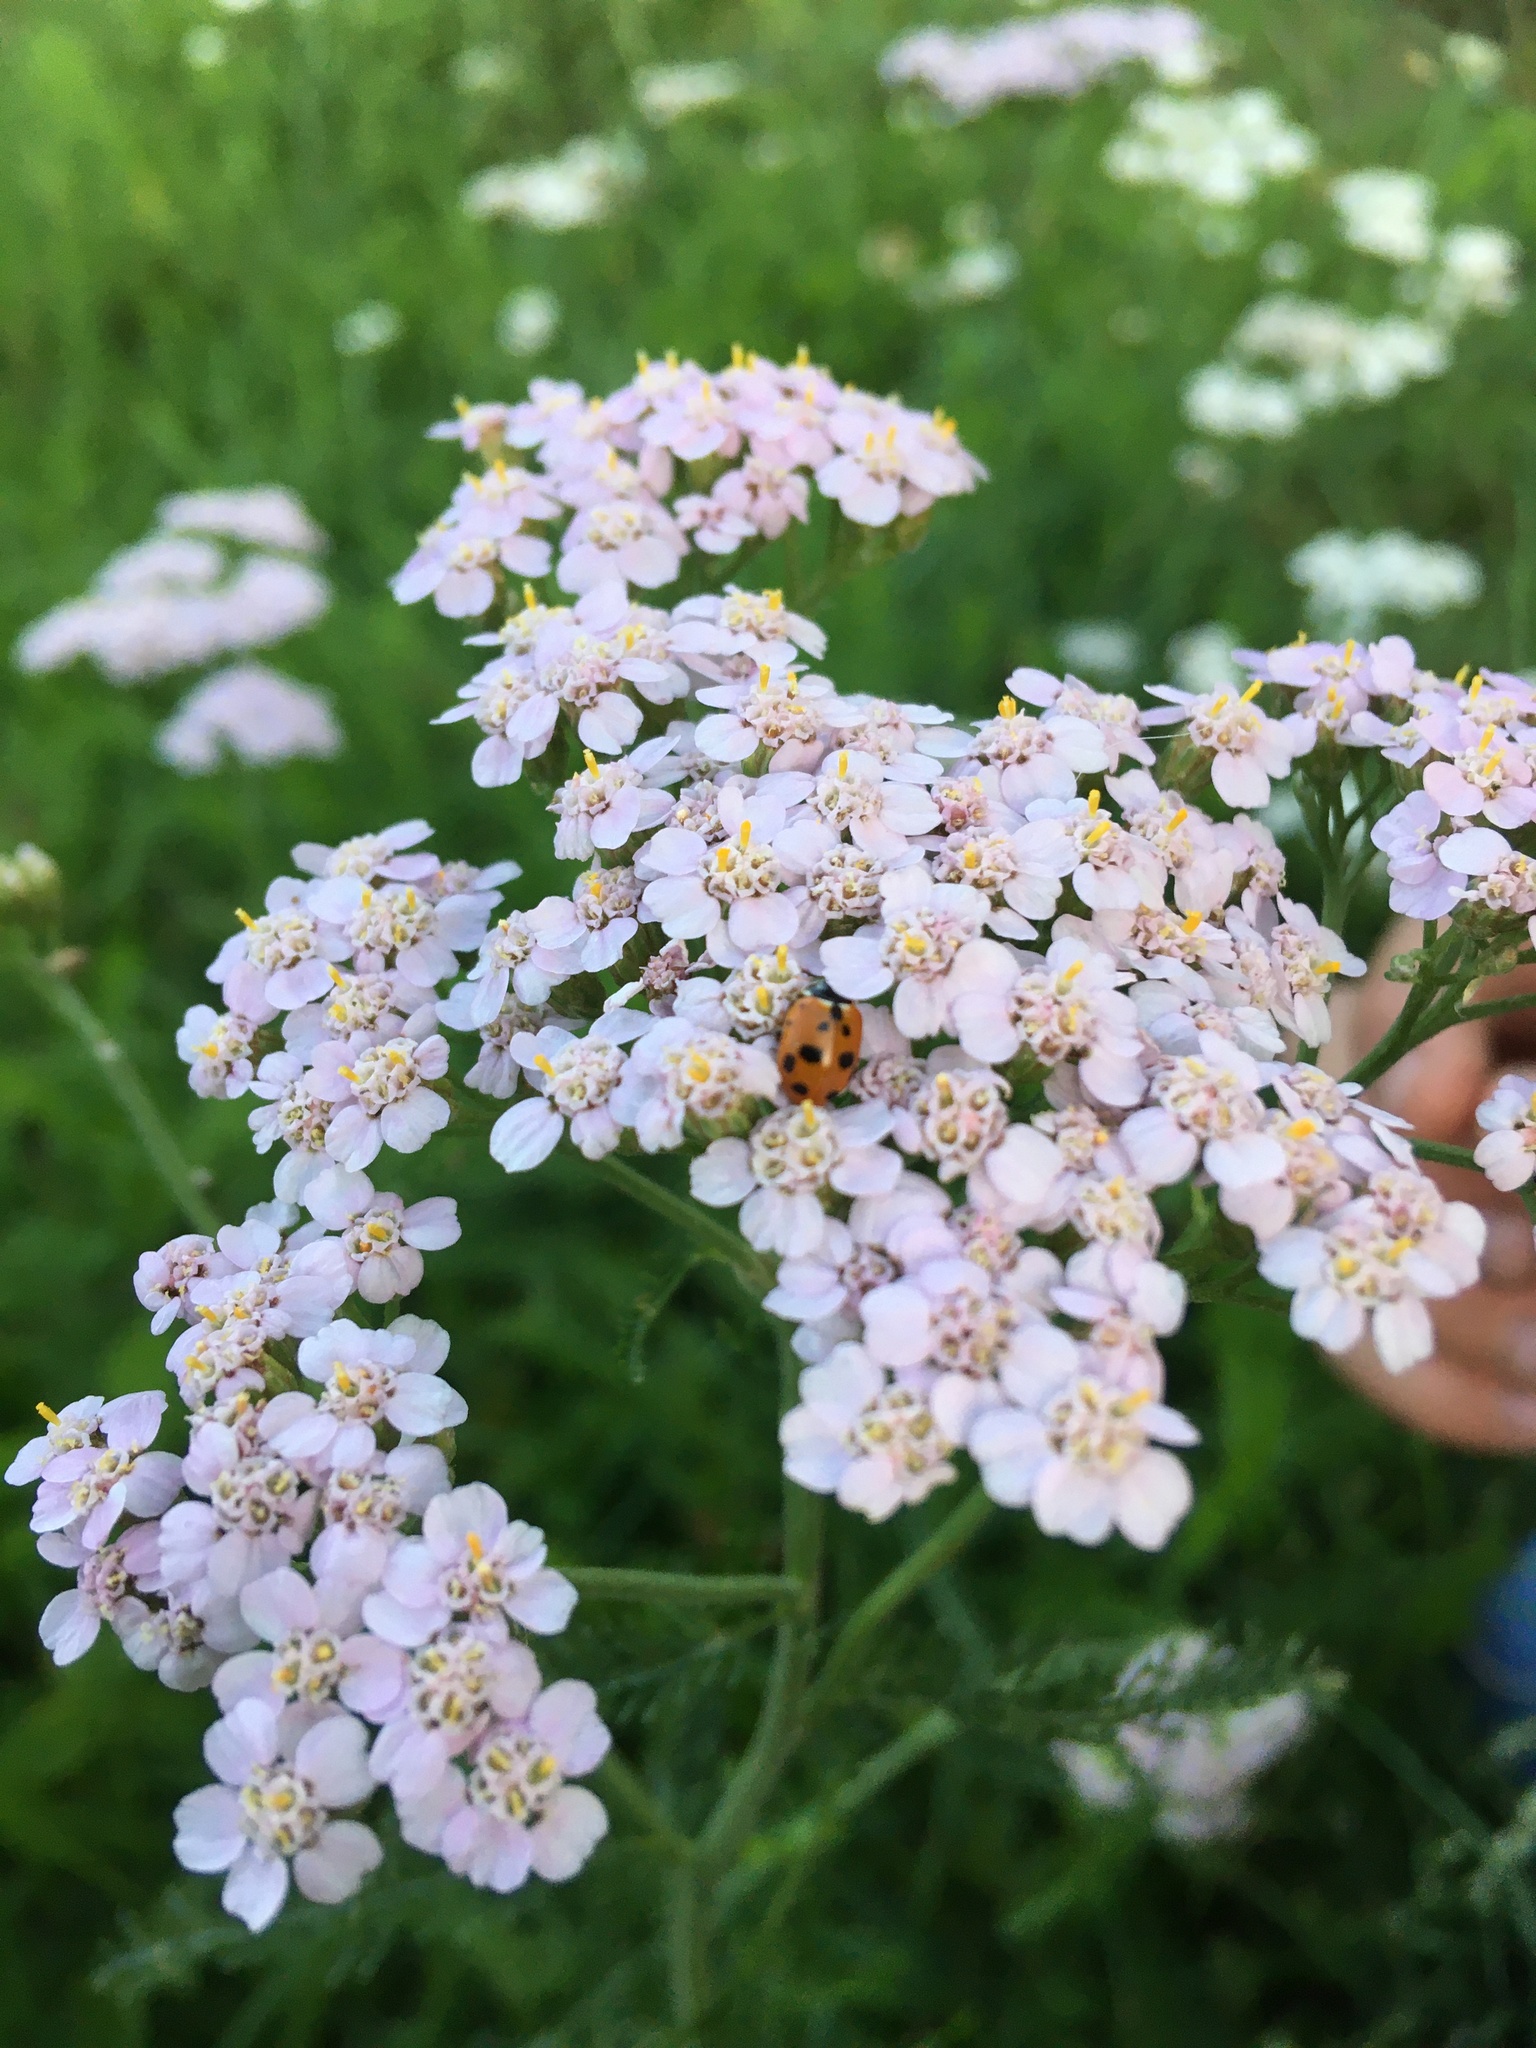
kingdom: Animalia
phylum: Arthropoda
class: Insecta
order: Coleoptera
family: Coccinellidae
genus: Hippodamia
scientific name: Hippodamia variegata
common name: Ladybird beetle
